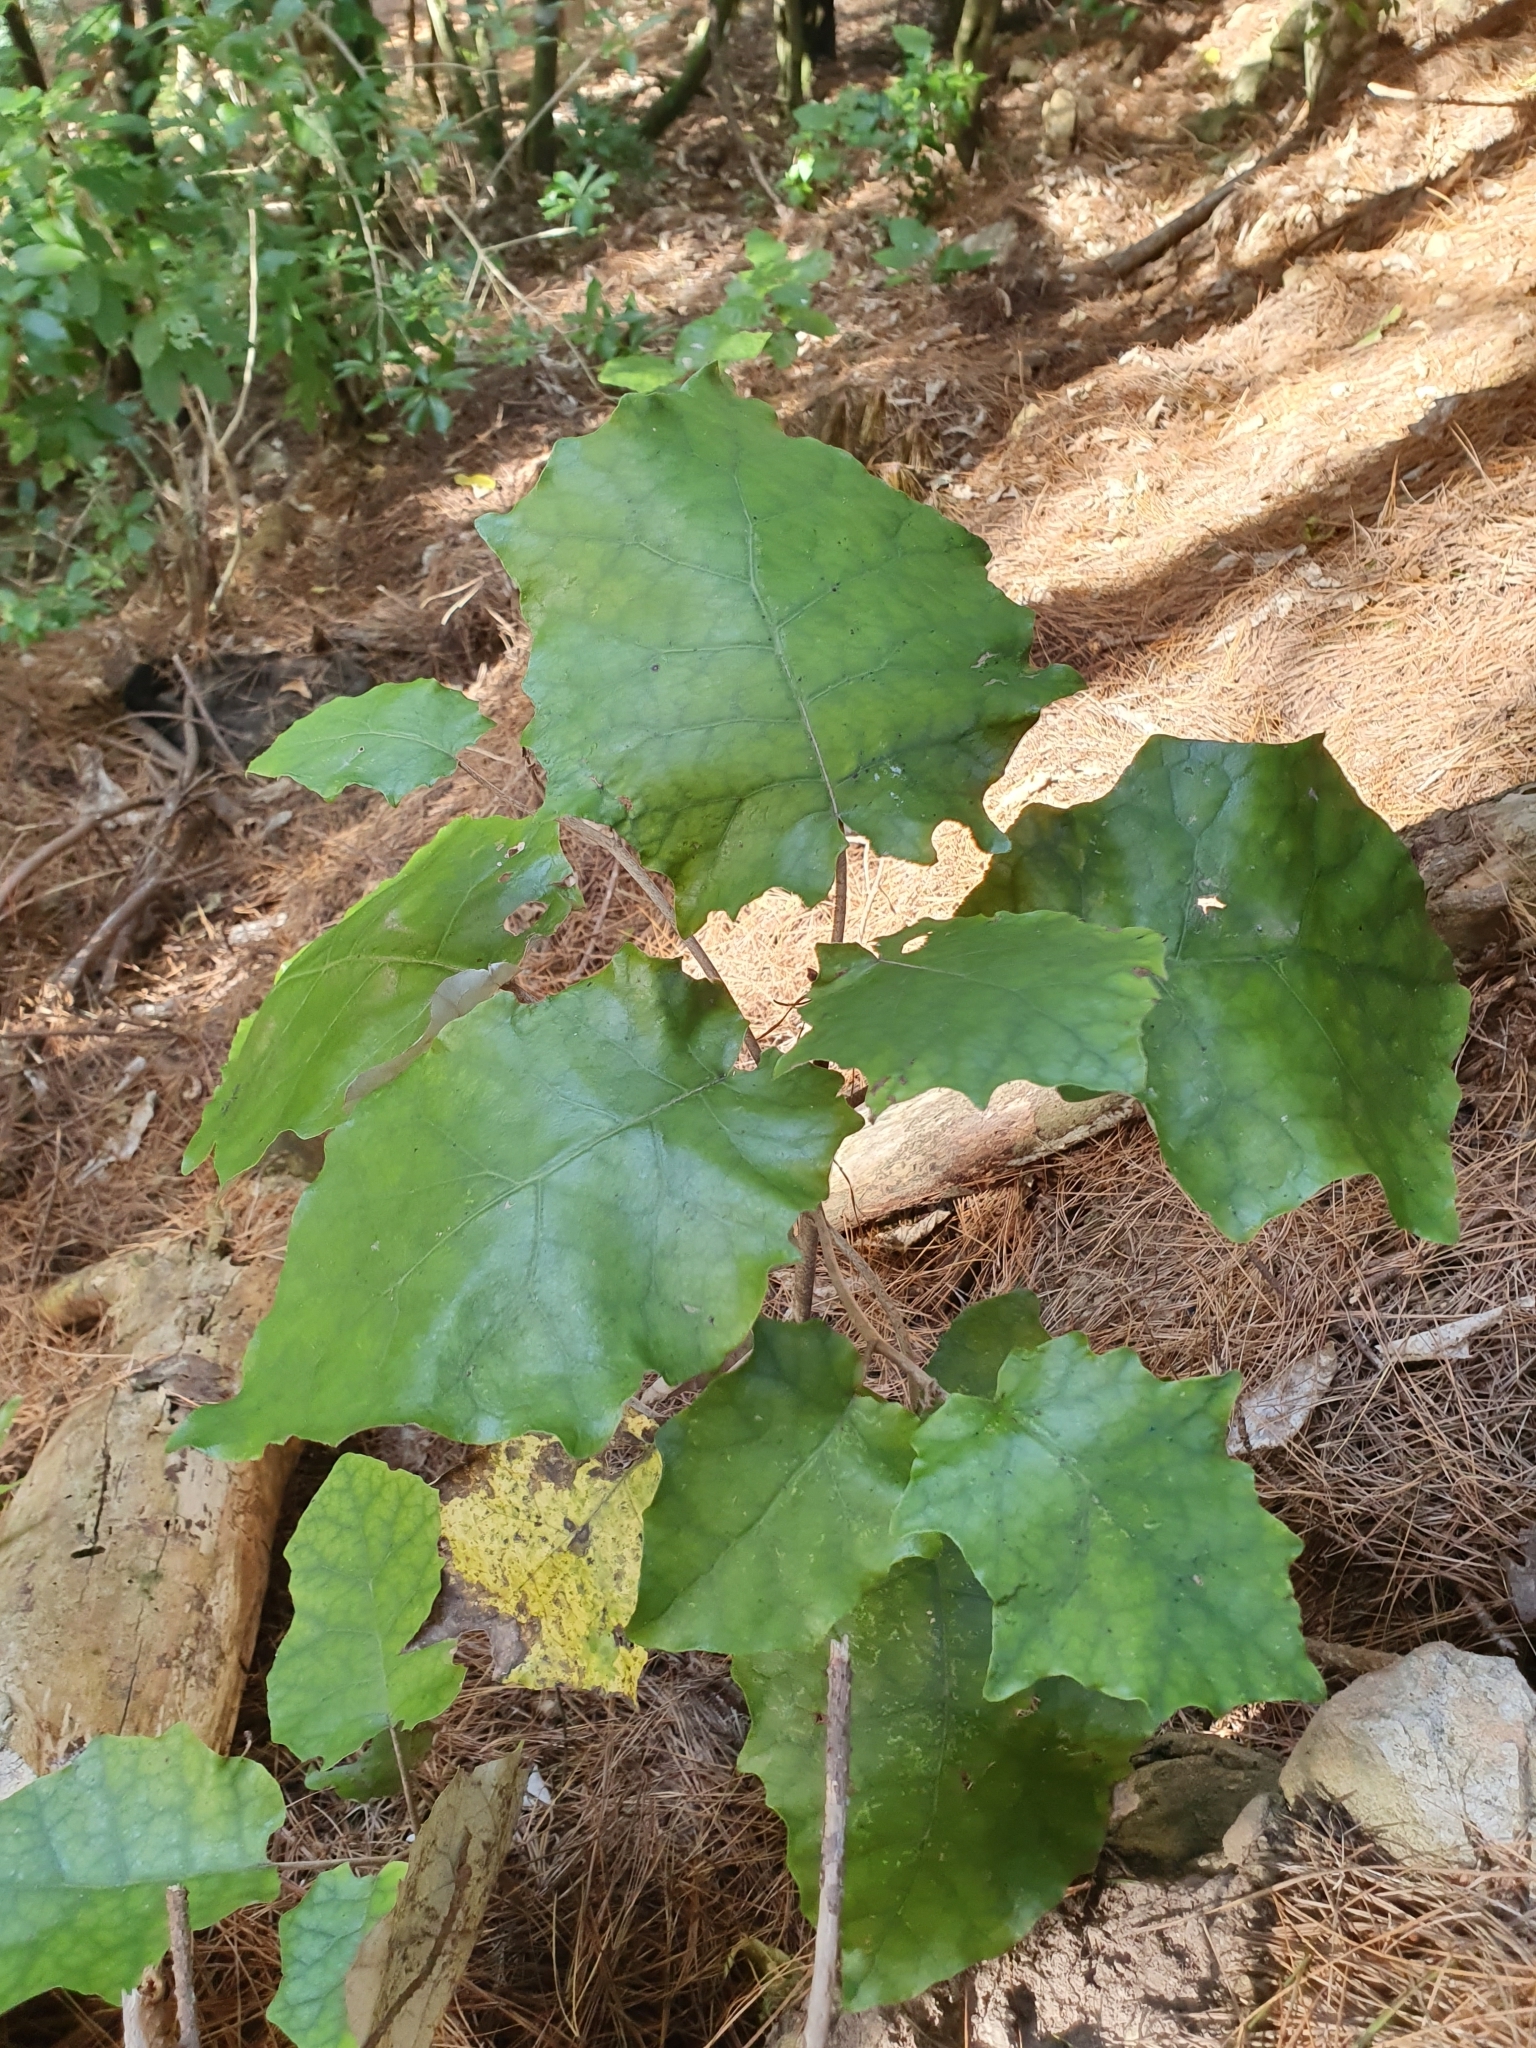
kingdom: Plantae
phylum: Tracheophyta
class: Magnoliopsida
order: Asterales
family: Asteraceae
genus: Brachyglottis
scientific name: Brachyglottis repanda
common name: Hedge ragwort
